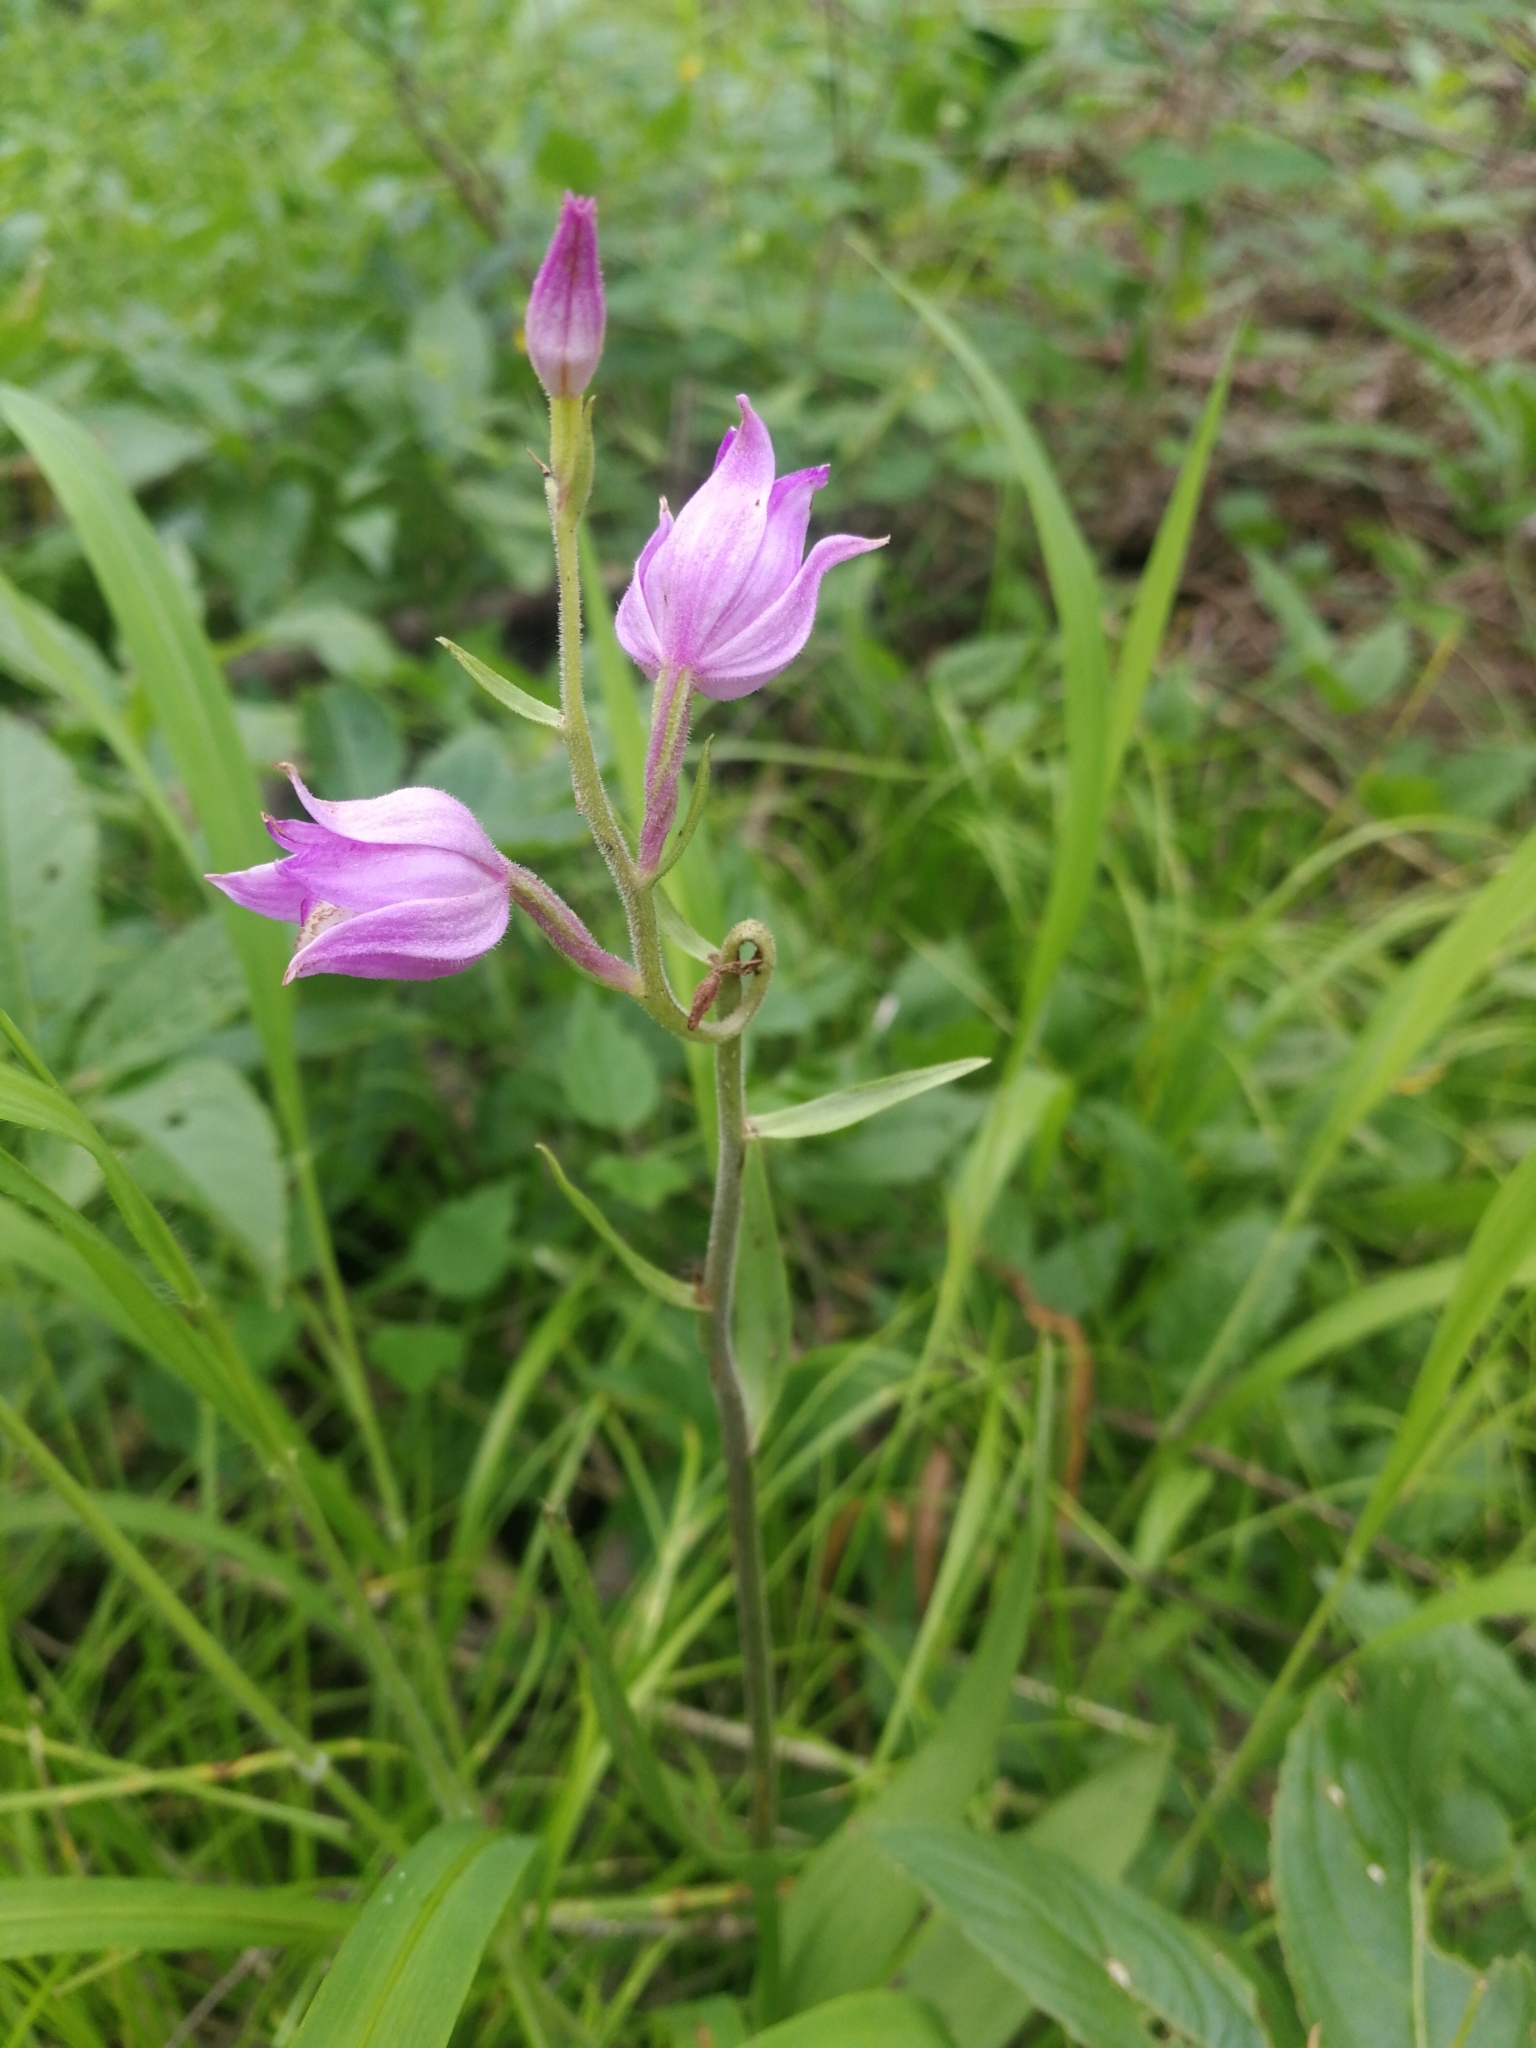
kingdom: Plantae
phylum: Tracheophyta
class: Liliopsida
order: Asparagales
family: Orchidaceae
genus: Cephalanthera
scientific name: Cephalanthera rubra
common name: Red helleborine
